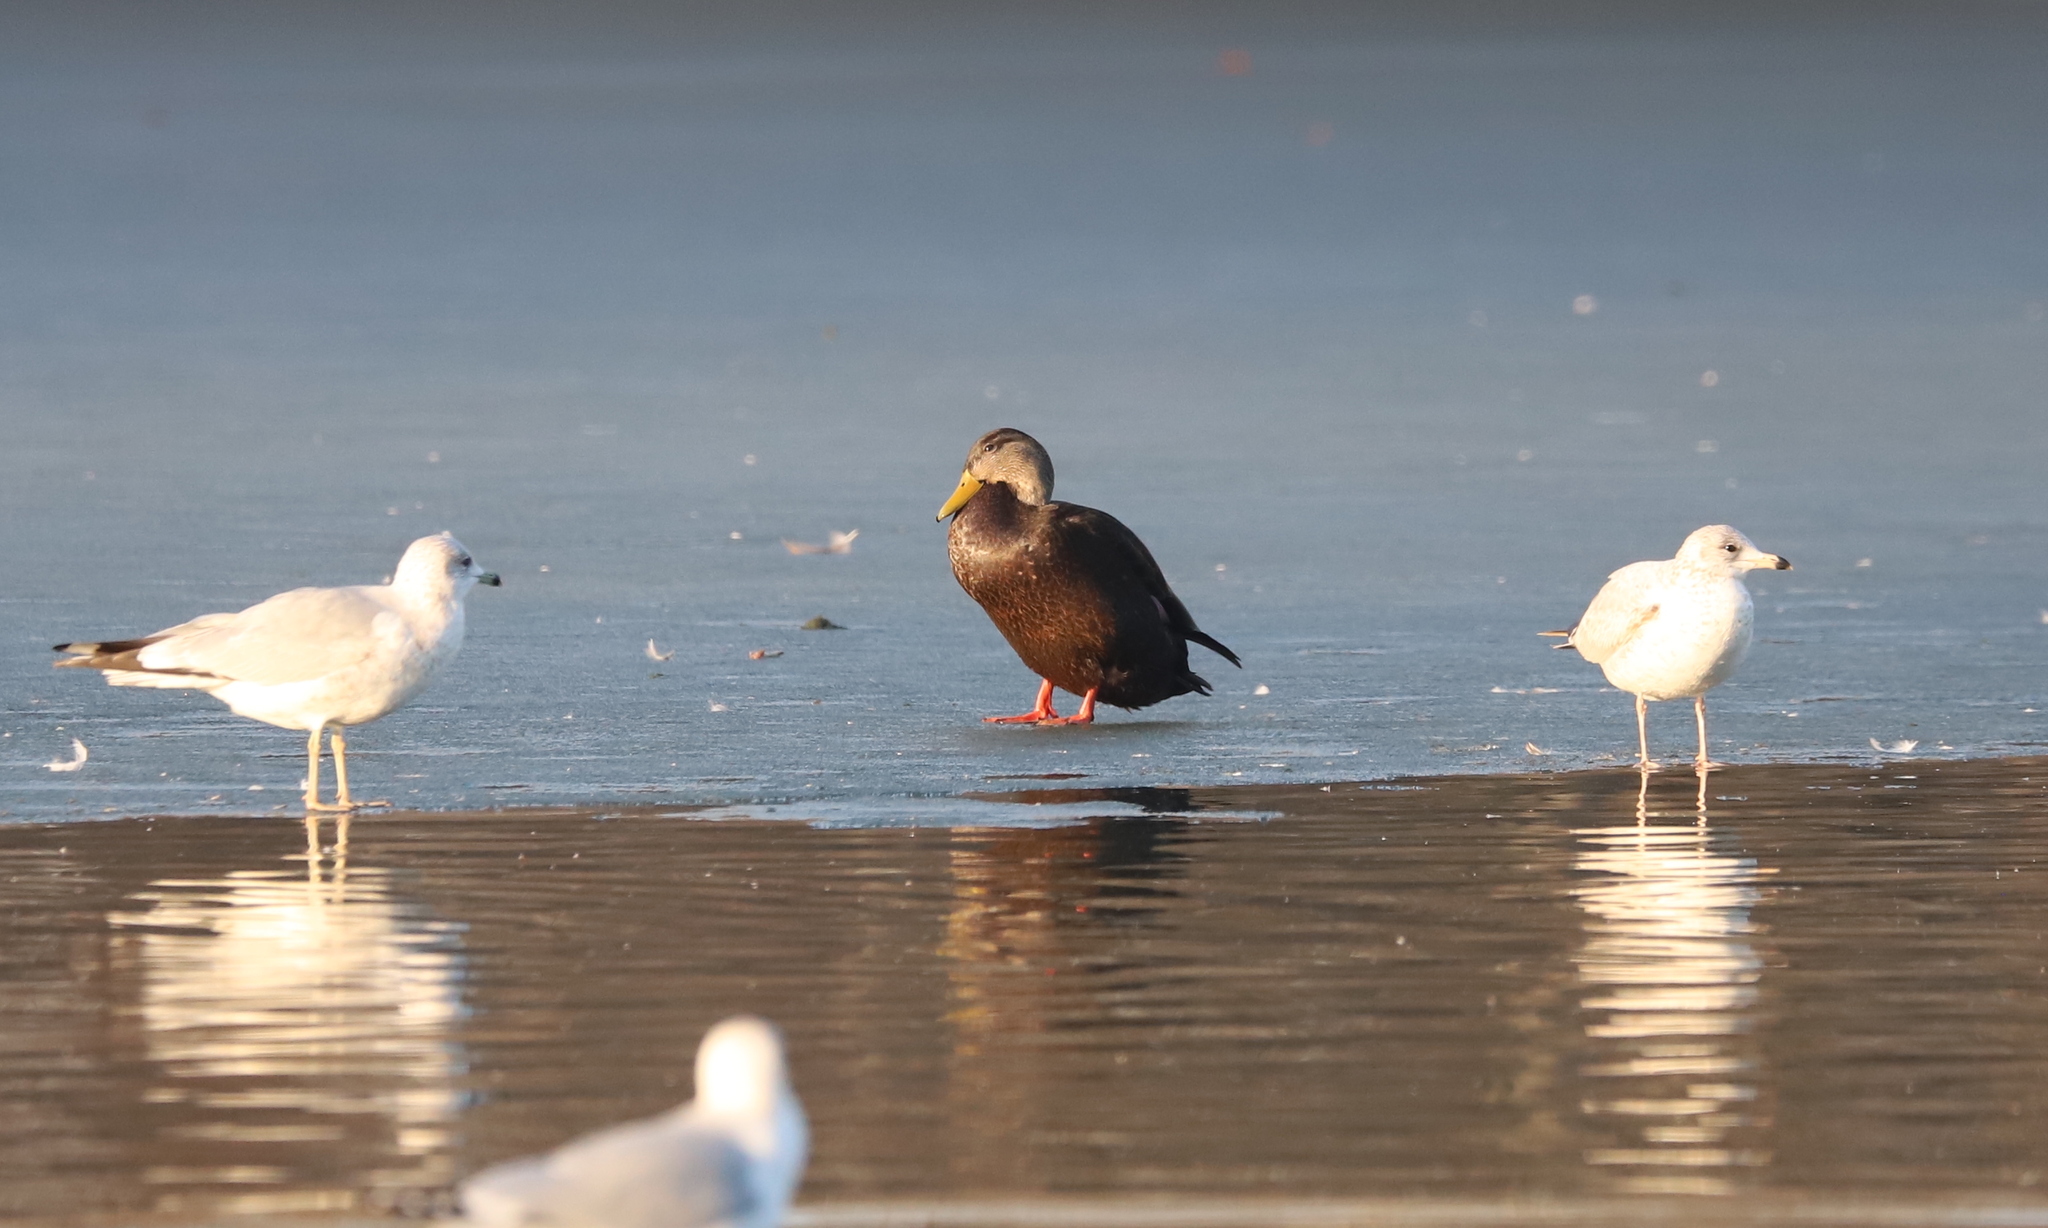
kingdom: Animalia
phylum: Chordata
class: Aves
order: Anseriformes
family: Anatidae
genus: Anas
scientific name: Anas rubripes
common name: American black duck
